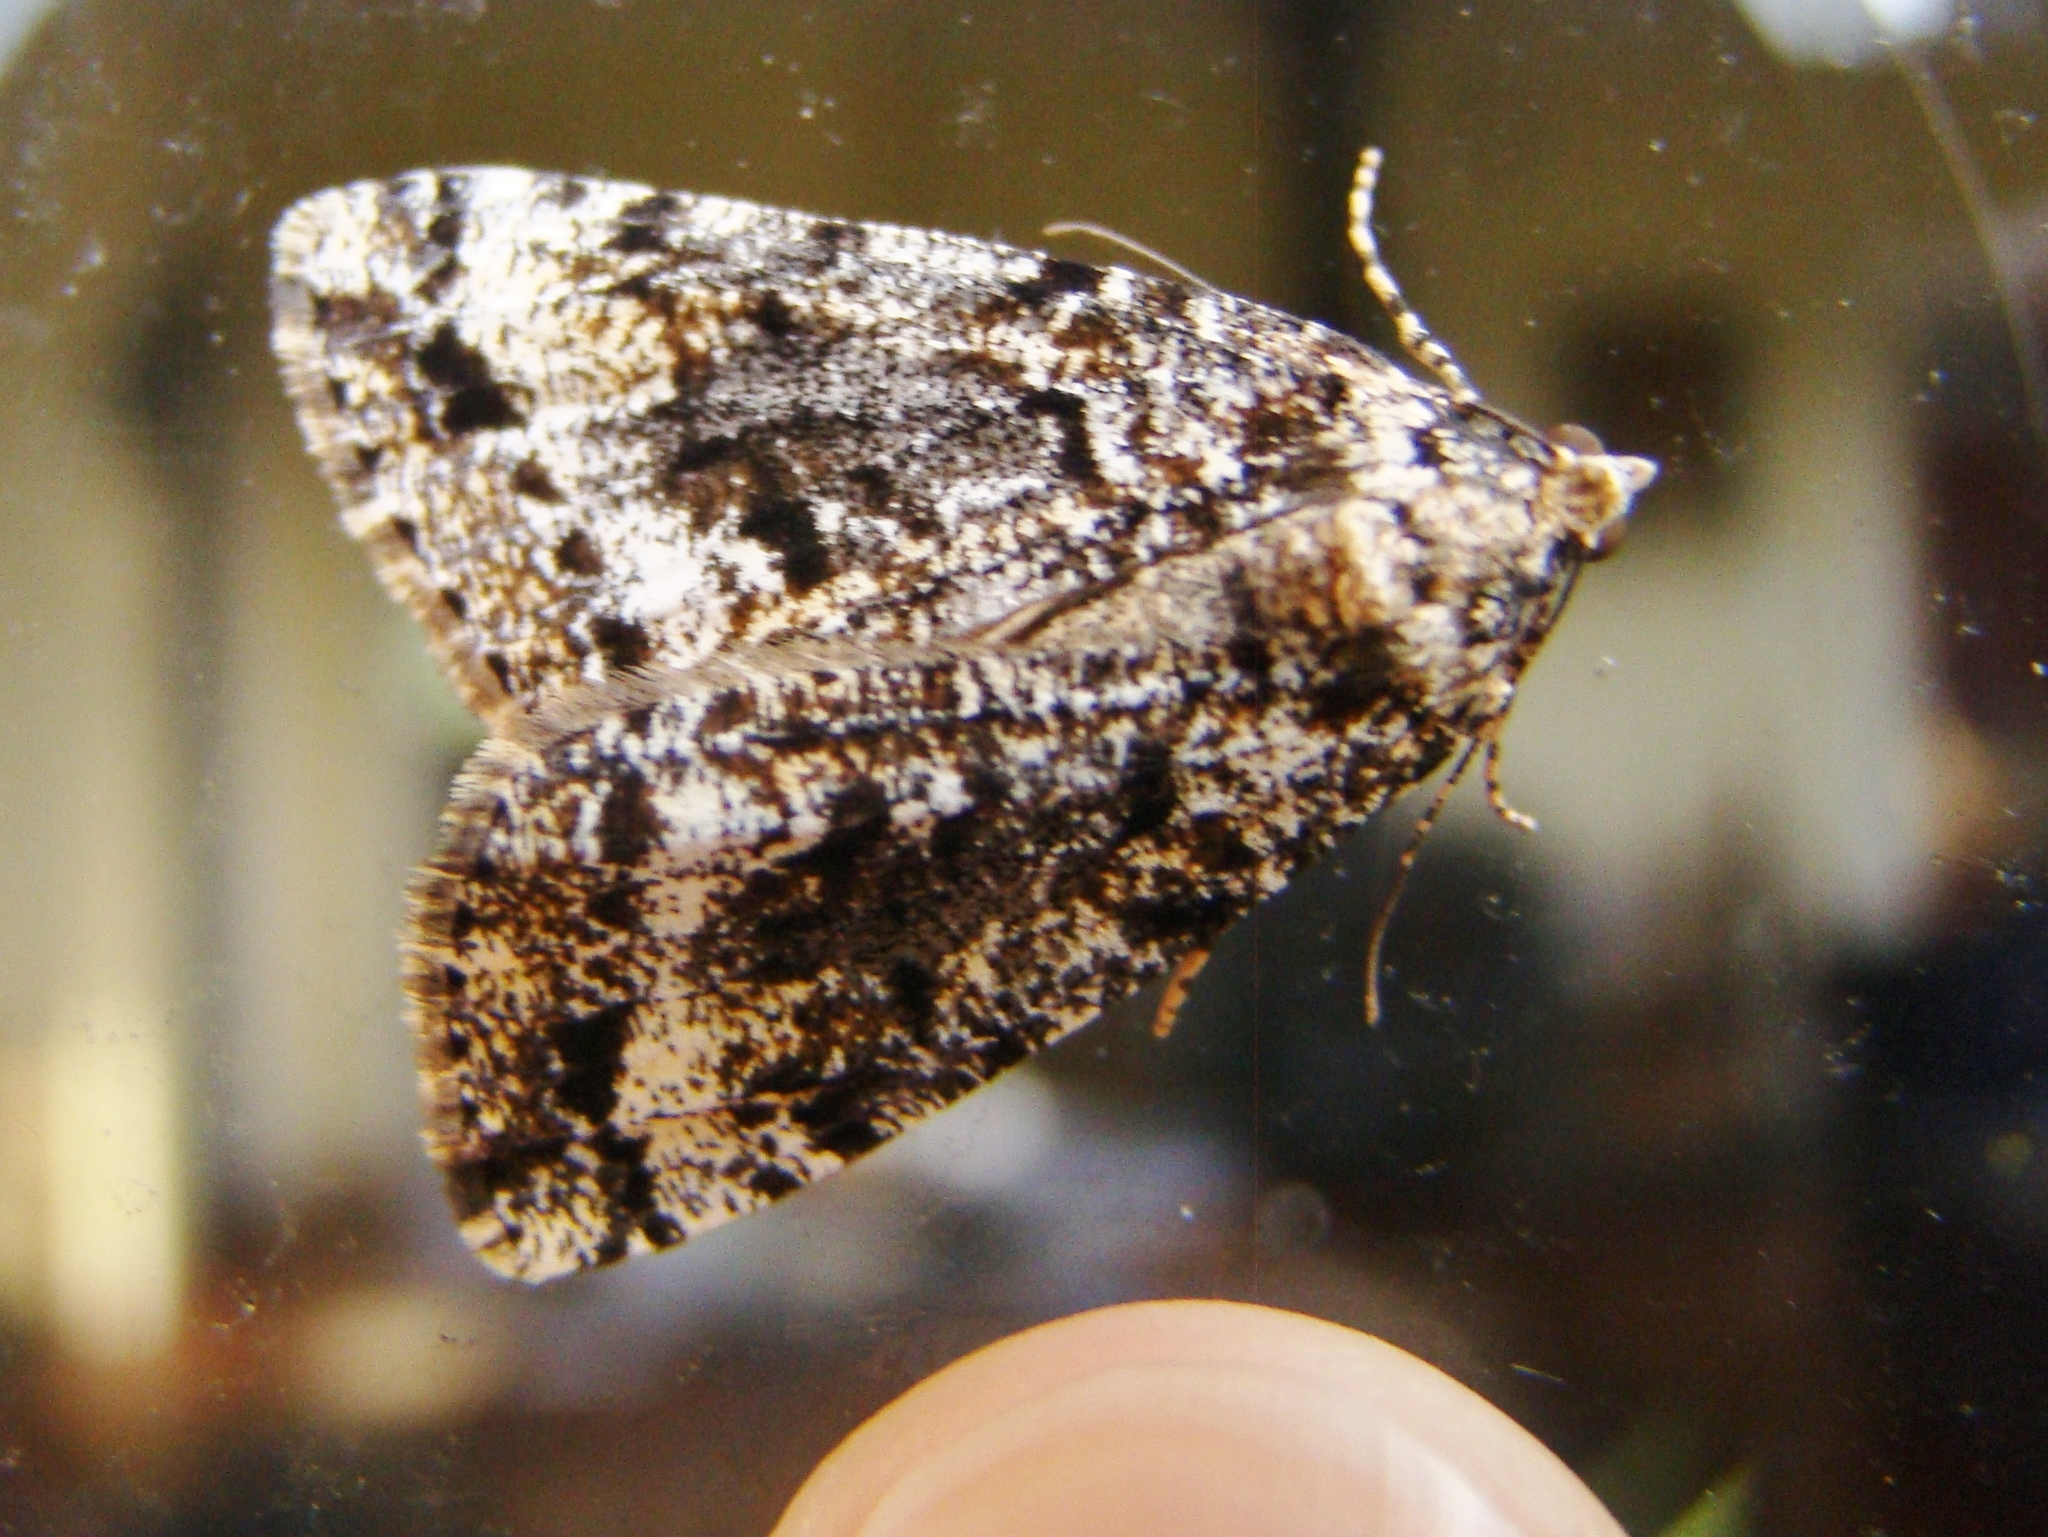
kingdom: Animalia
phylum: Arthropoda
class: Insecta
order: Lepidoptera
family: Geometridae
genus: Pseudocoremia
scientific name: Pseudocoremia leucelaea
